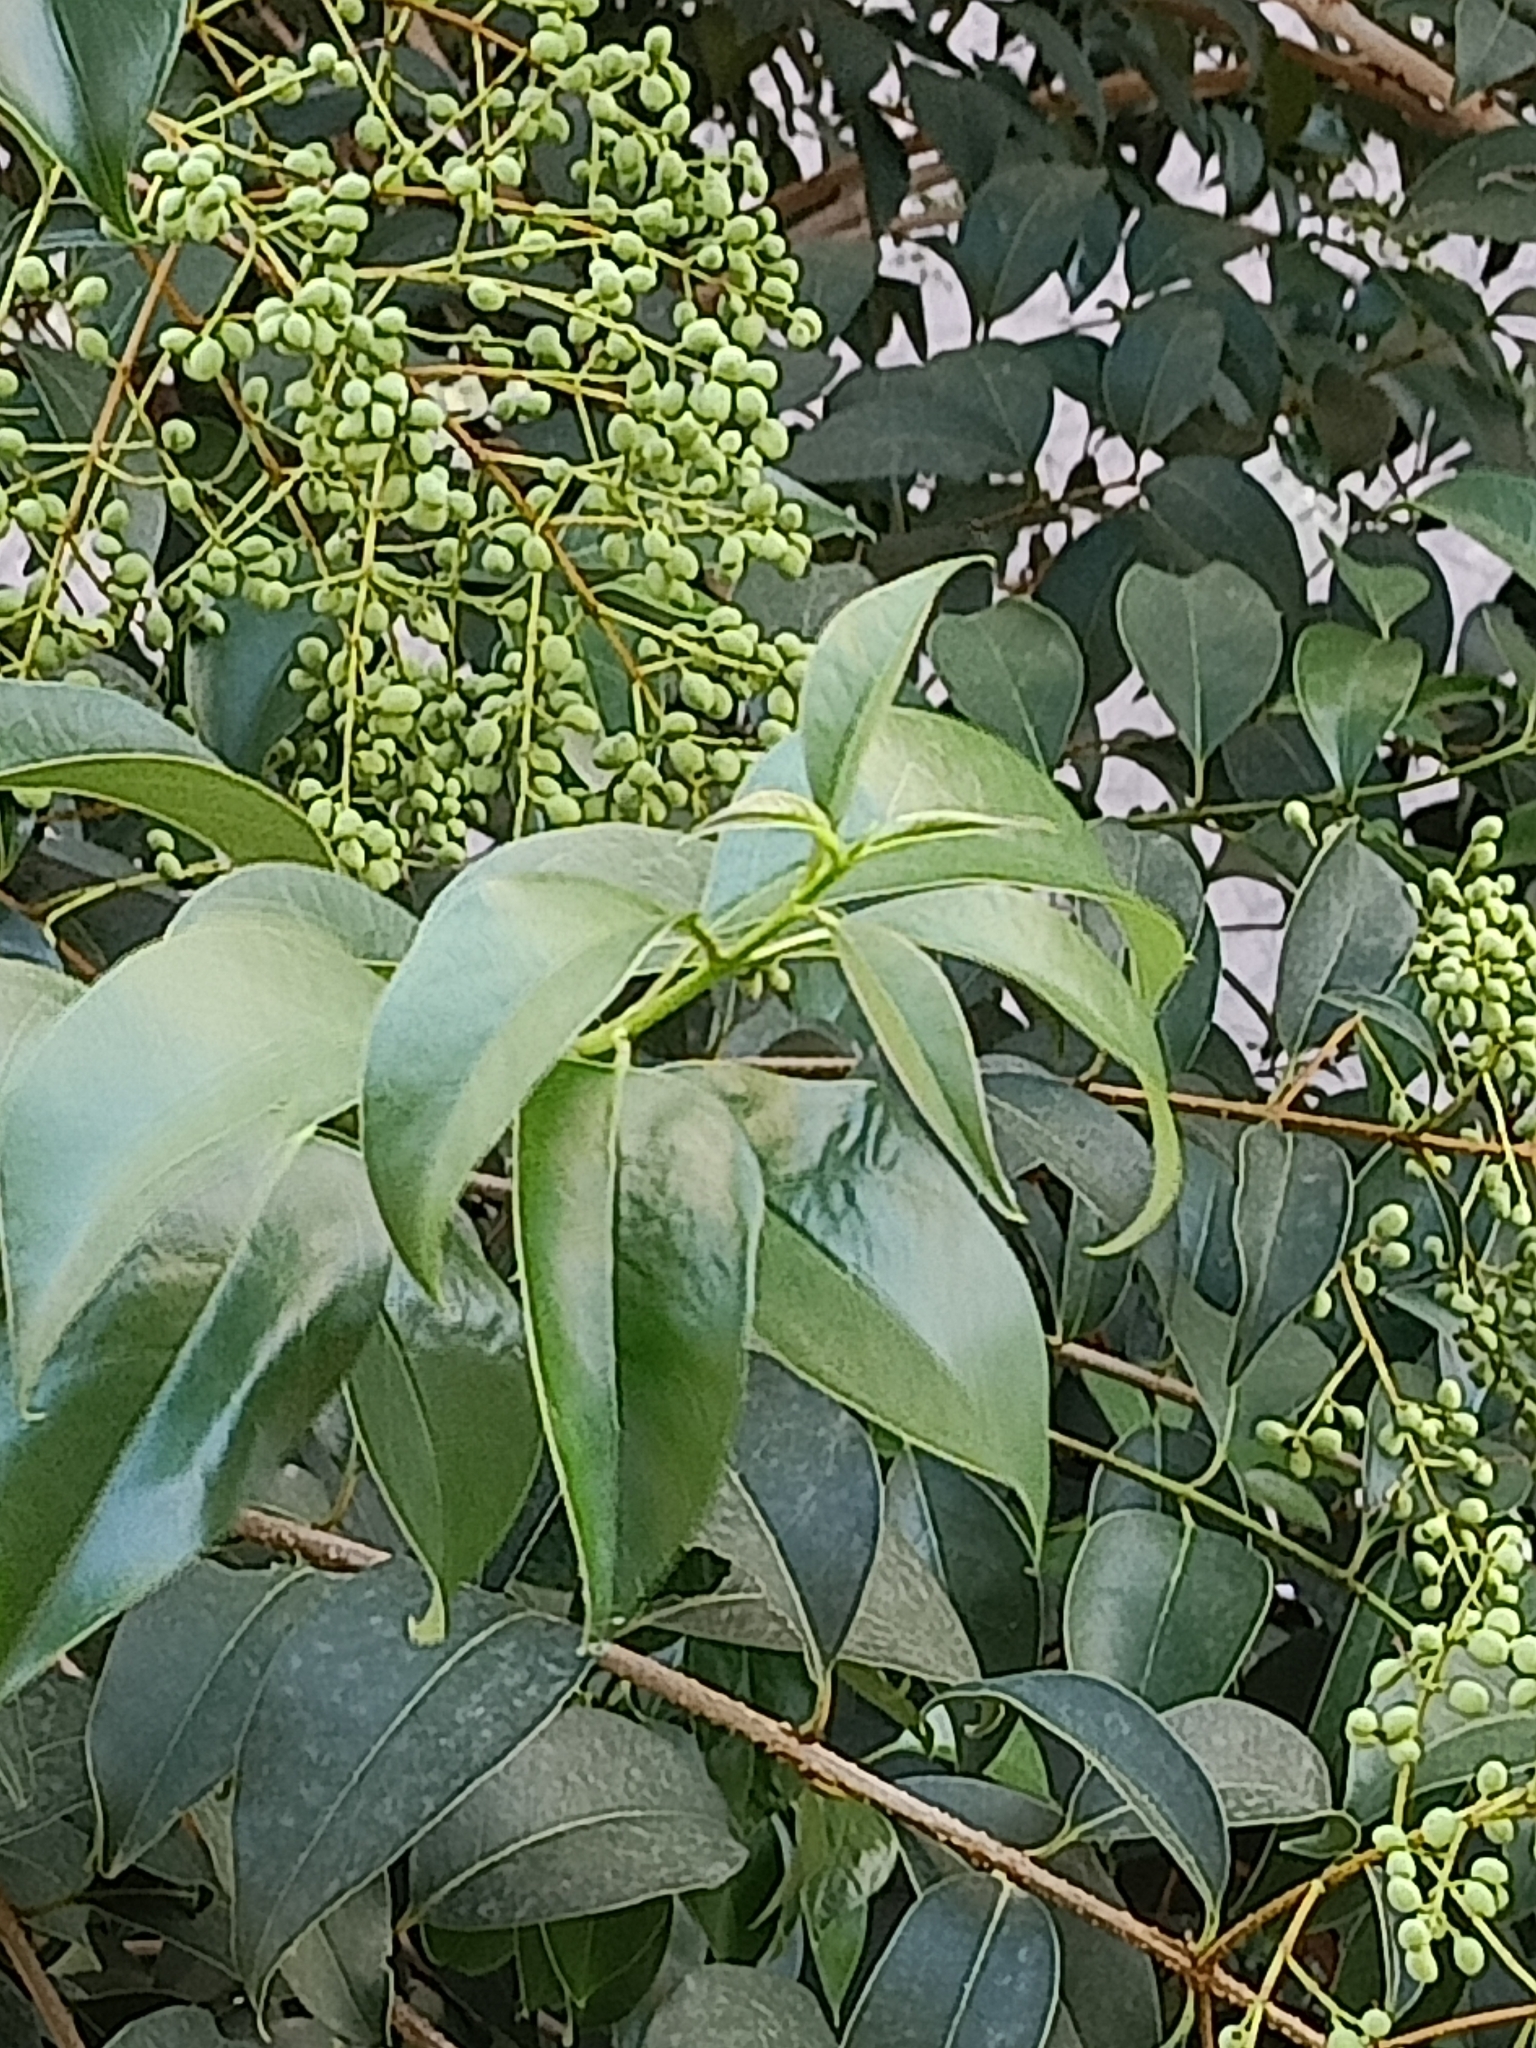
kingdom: Plantae
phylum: Tracheophyta
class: Magnoliopsida
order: Lamiales
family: Oleaceae
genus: Ligustrum
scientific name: Ligustrum lucidum
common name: Glossy privet
